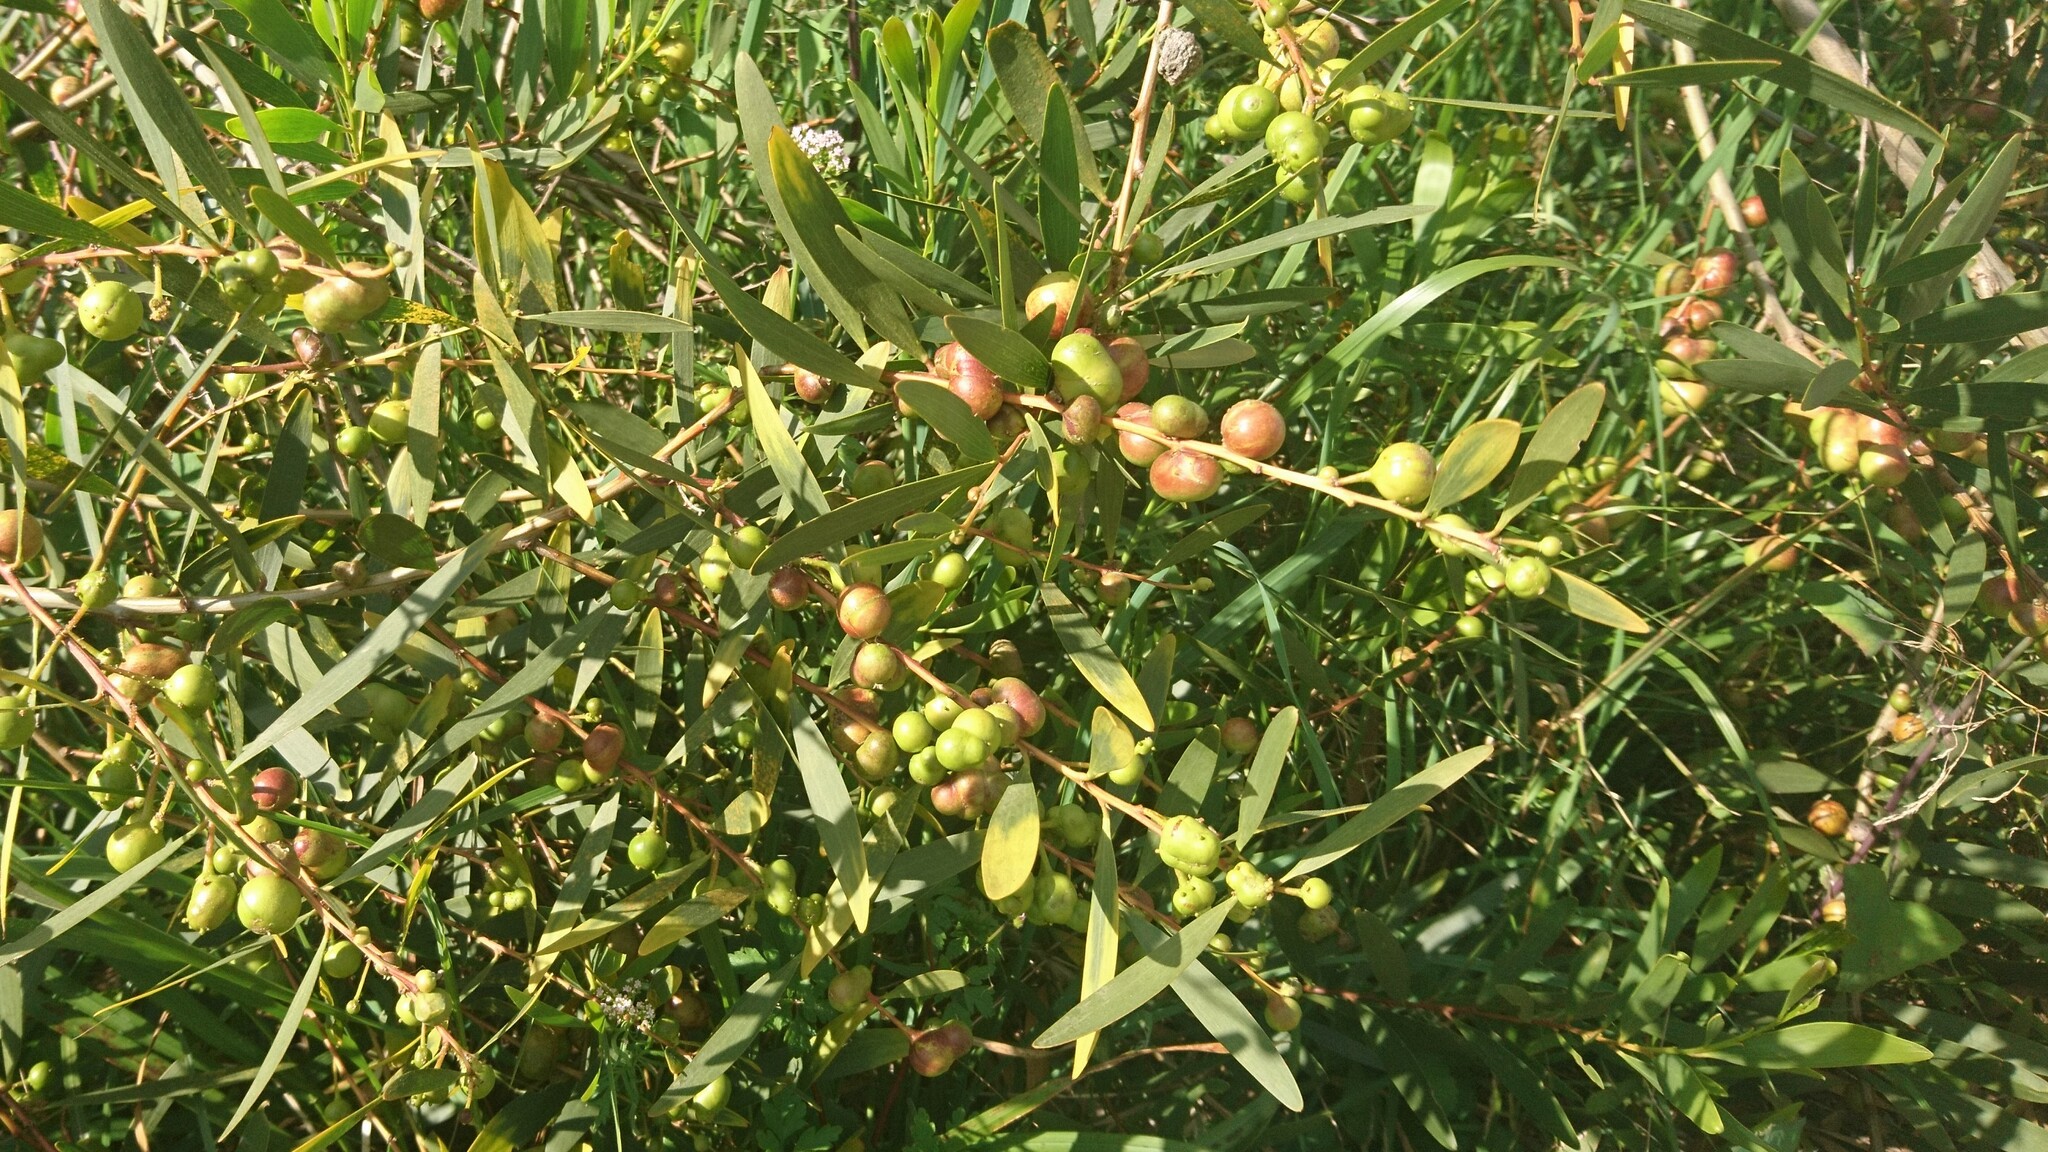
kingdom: Animalia
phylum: Arthropoda
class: Insecta
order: Hymenoptera
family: Pteromalidae
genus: Trichilogaster
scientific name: Trichilogaster acaciaelongifoliae
